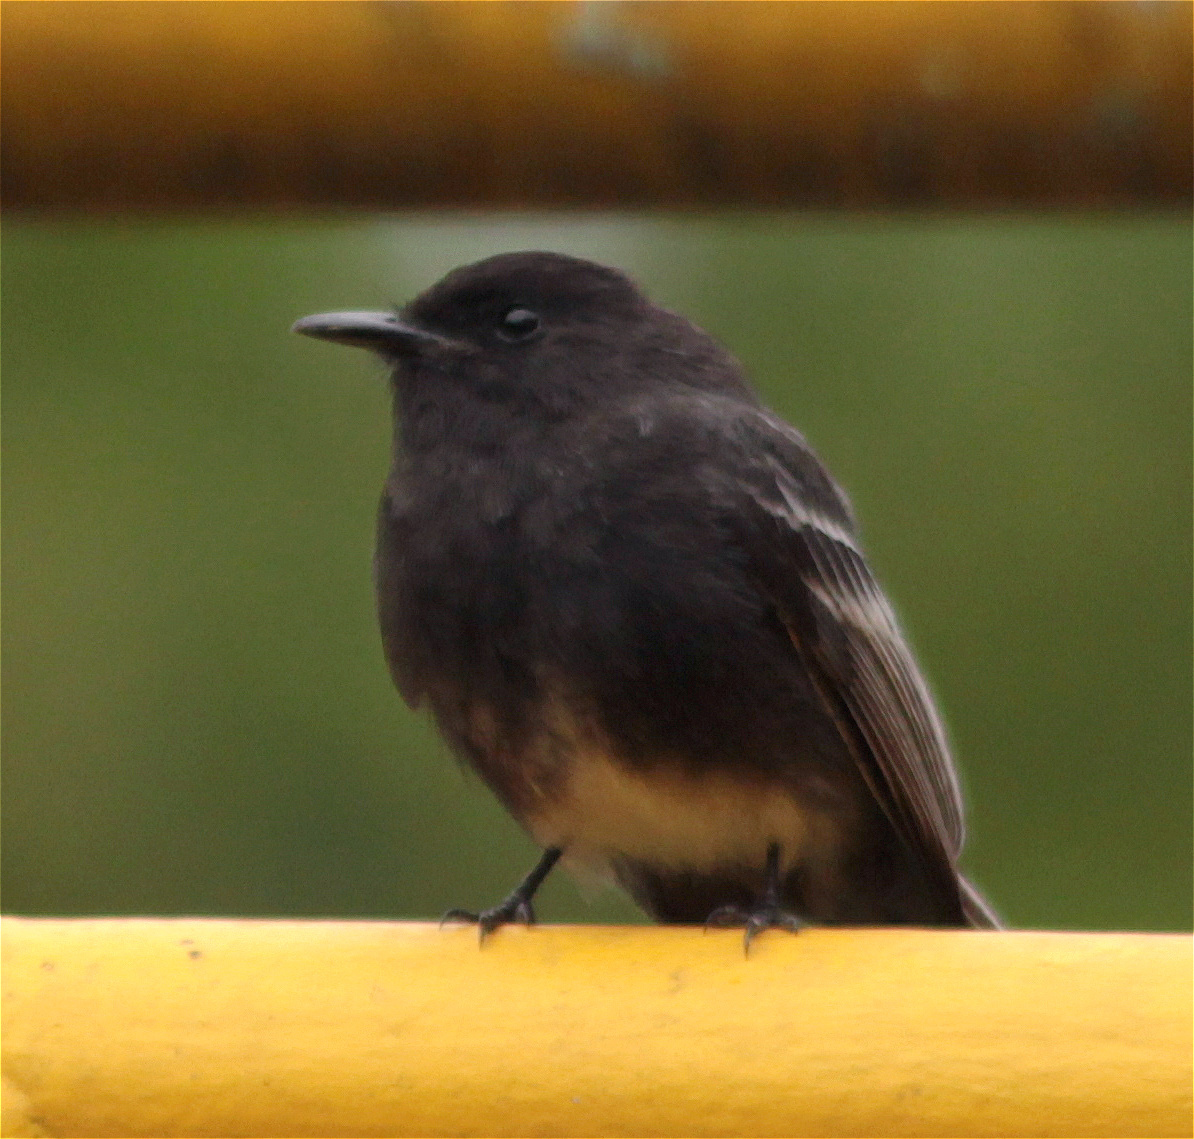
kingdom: Animalia
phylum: Chordata
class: Aves
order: Passeriformes
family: Tyrannidae
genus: Sayornis
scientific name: Sayornis nigricans
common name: Black phoebe
